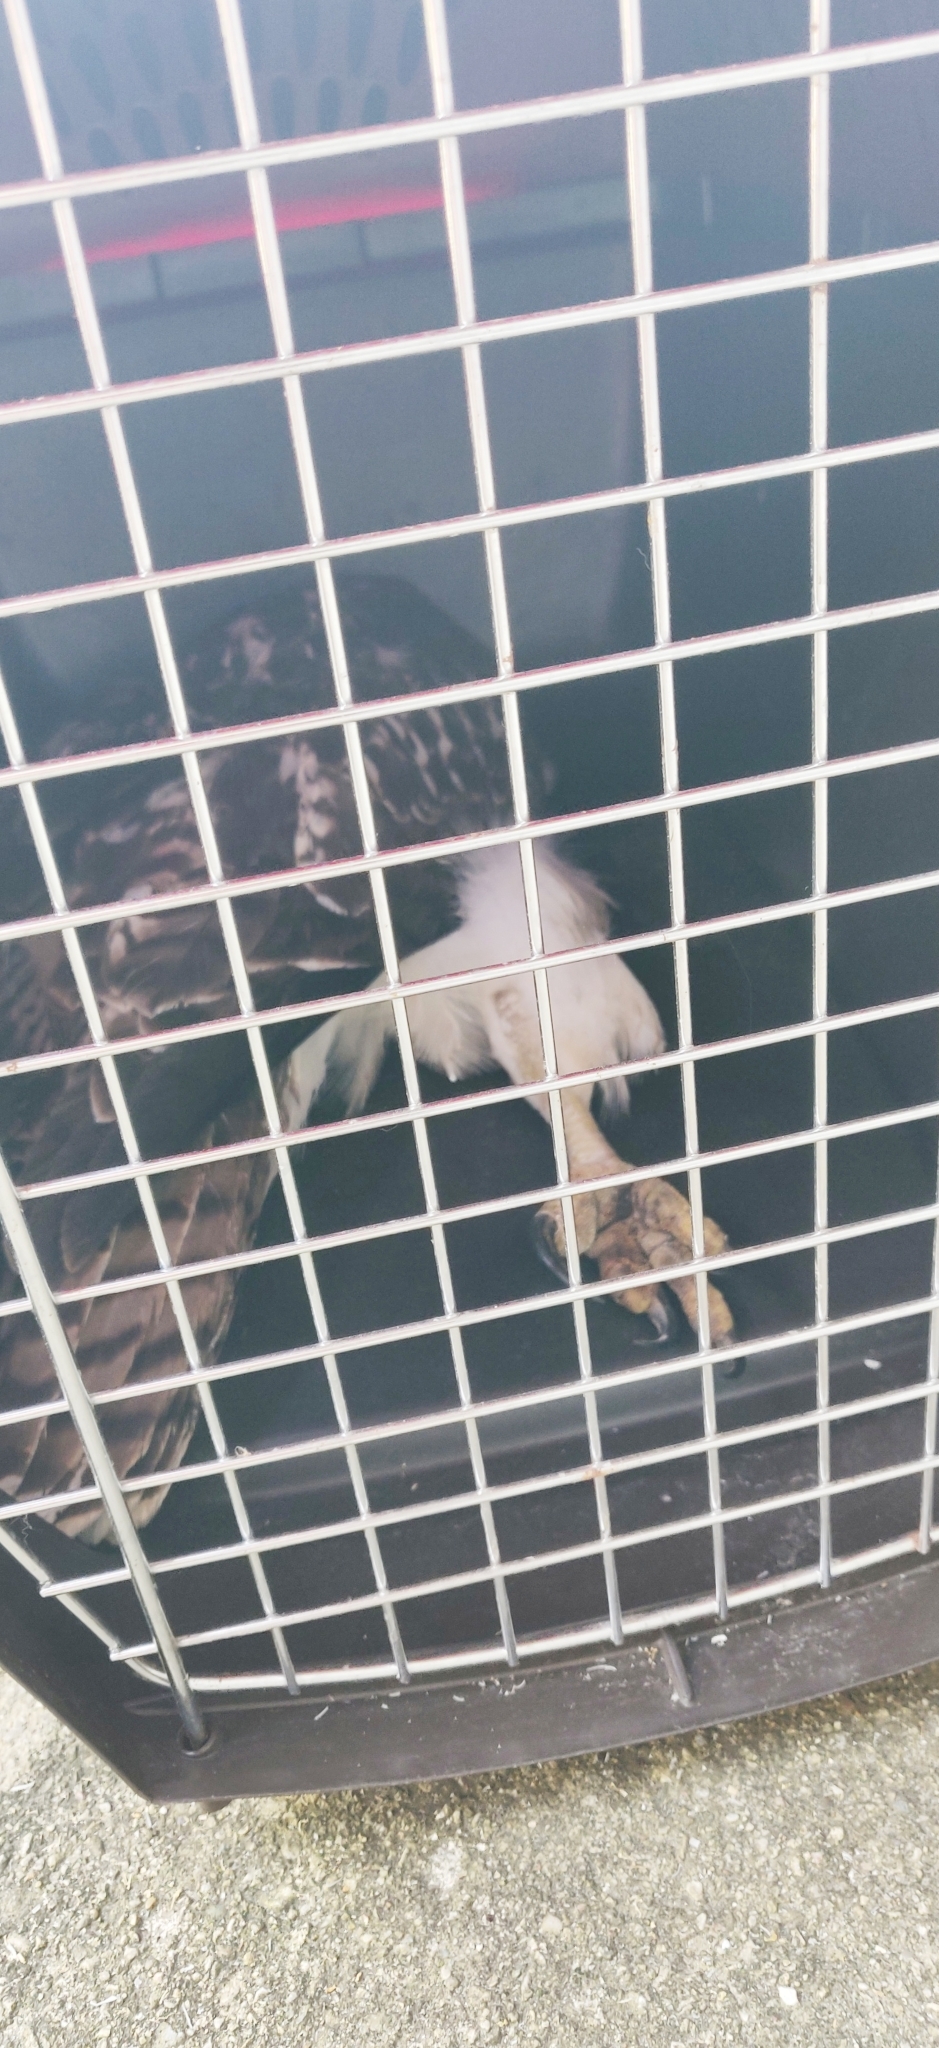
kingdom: Animalia
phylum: Chordata
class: Aves
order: Accipitriformes
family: Accipitridae
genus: Buteo
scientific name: Buteo jamaicensis
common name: Red-tailed hawk
